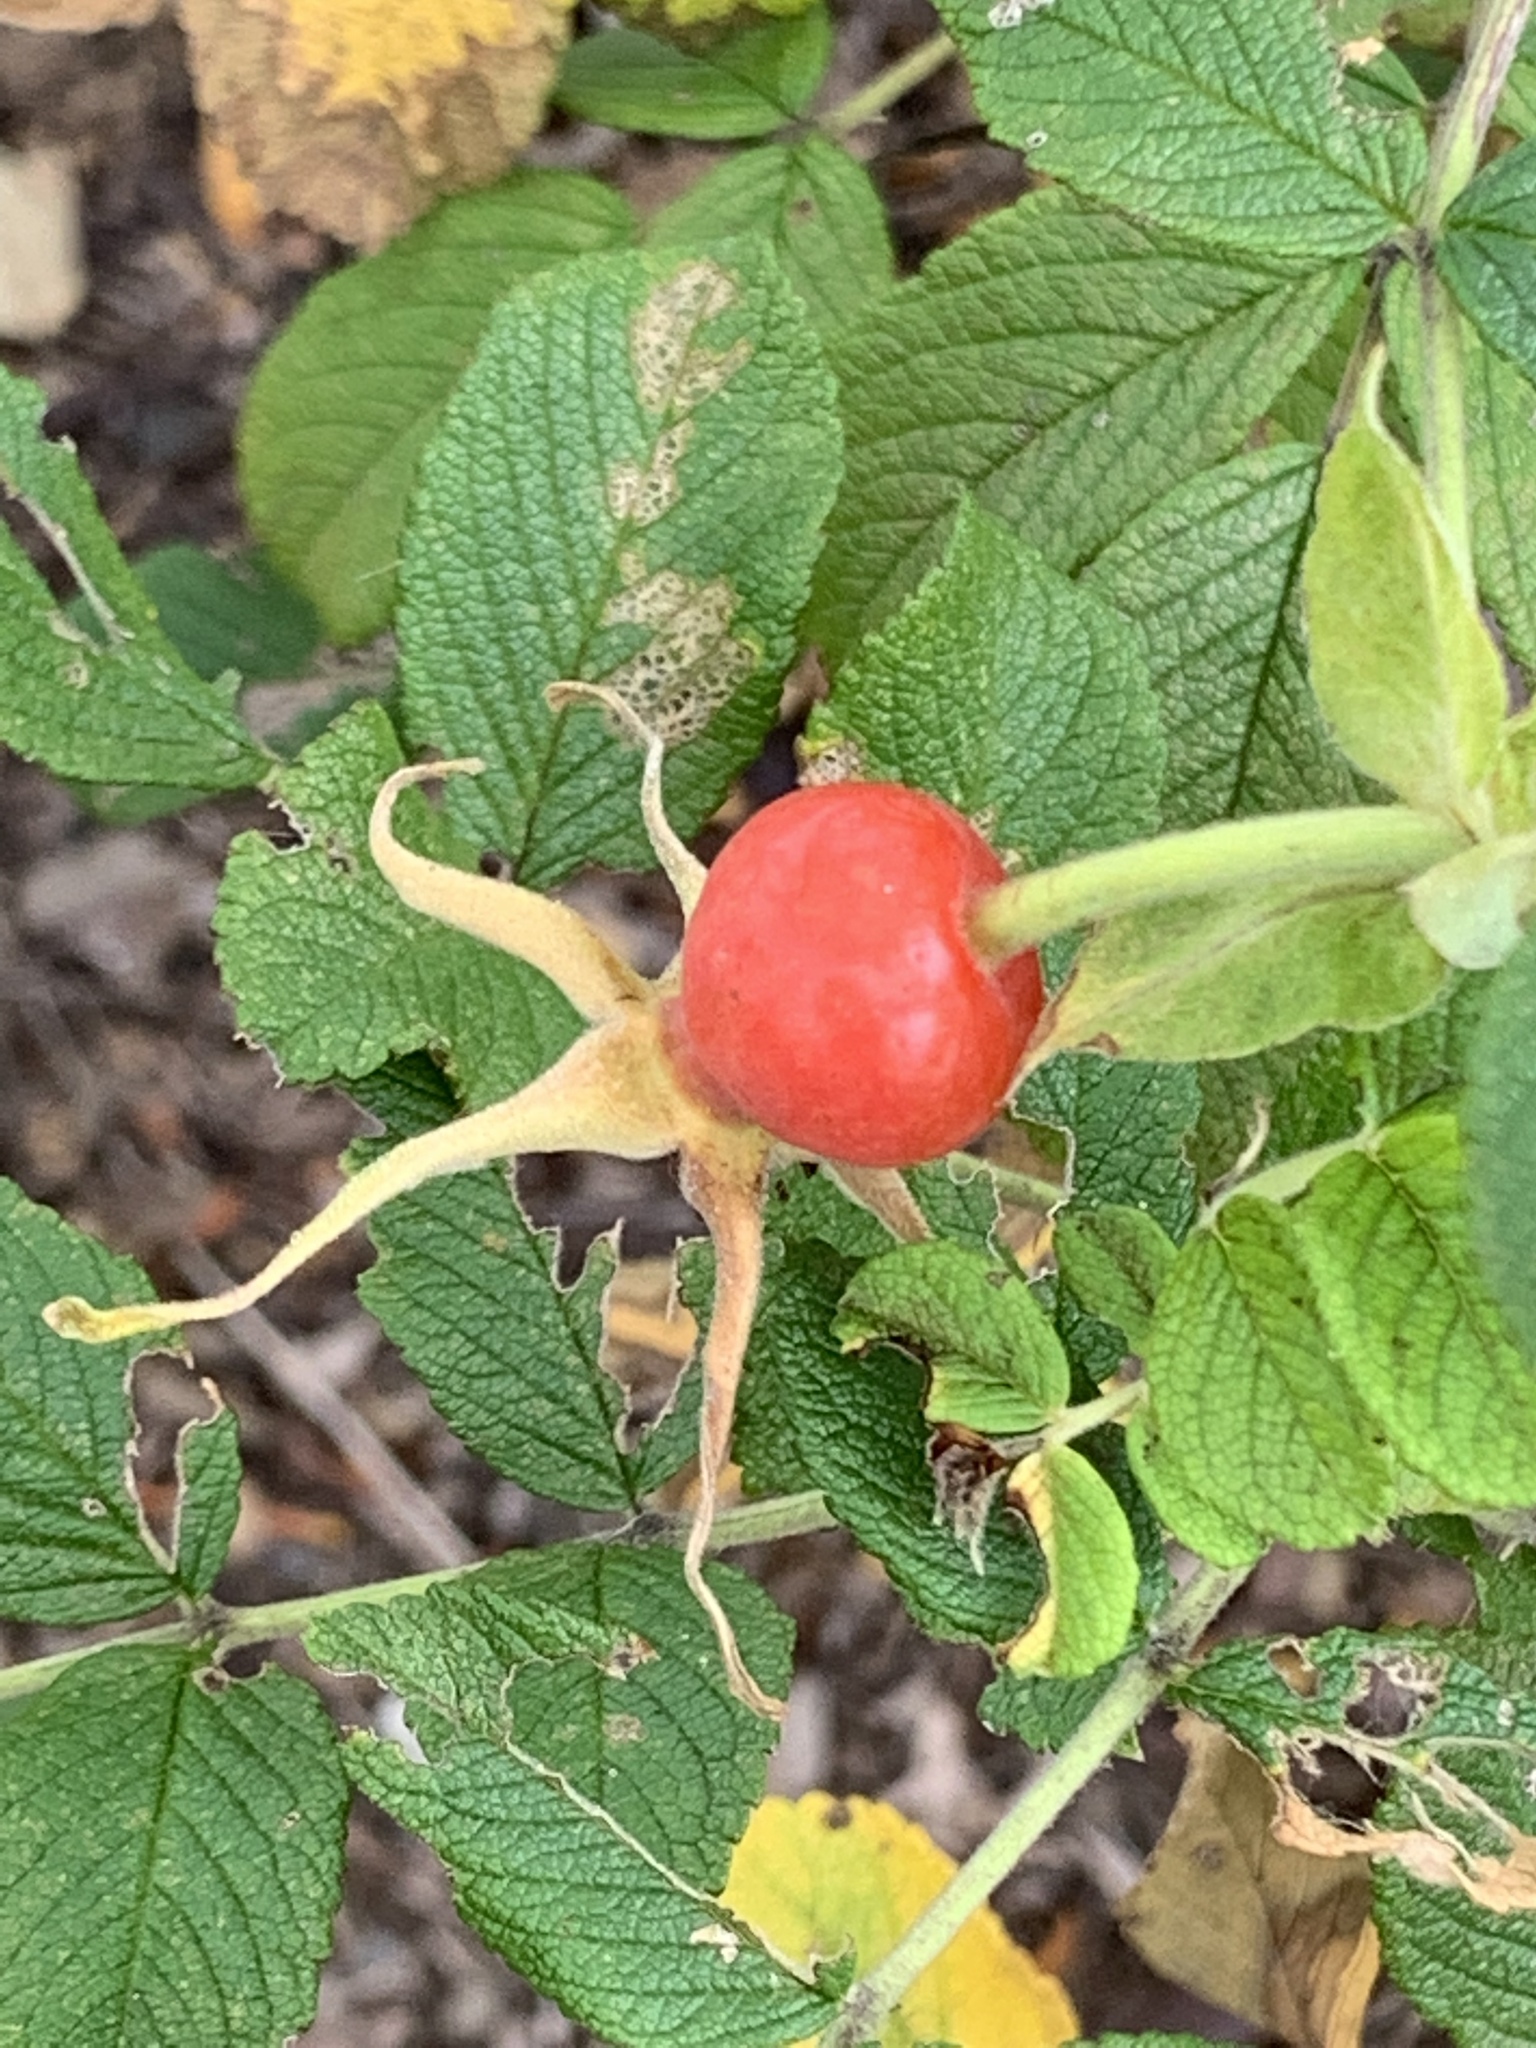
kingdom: Plantae
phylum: Tracheophyta
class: Magnoliopsida
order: Rosales
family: Rosaceae
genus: Rosa
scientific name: Rosa rugosa
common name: Japanese rose
